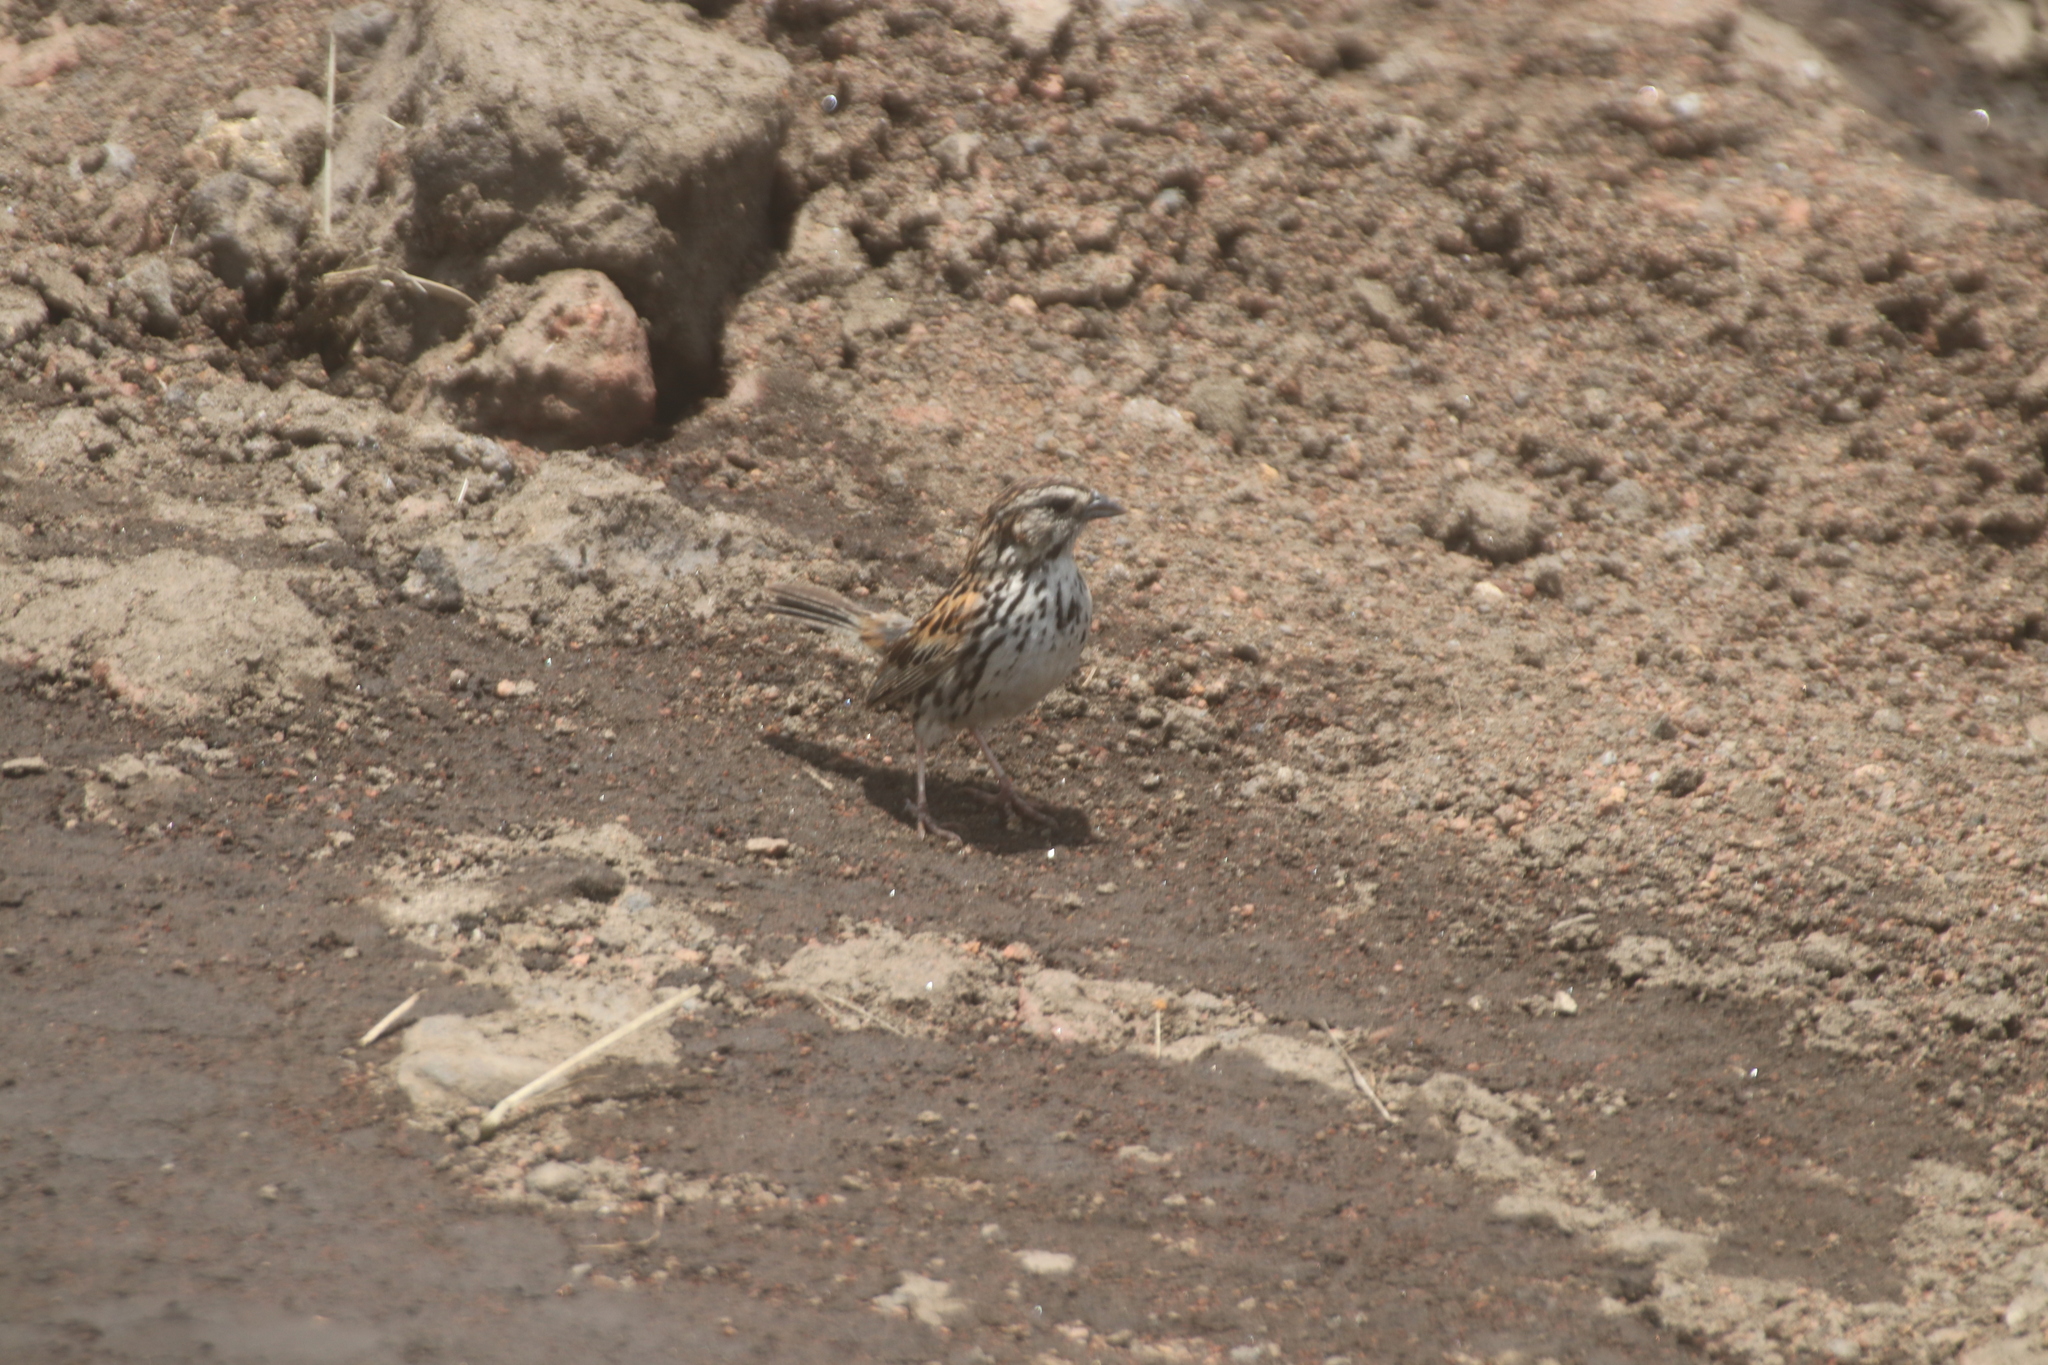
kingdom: Animalia
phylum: Chordata
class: Aves
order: Passeriformes
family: Passerellidae
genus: Xenospiza
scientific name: Xenospiza baileyi
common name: Sierra madre sparrow
